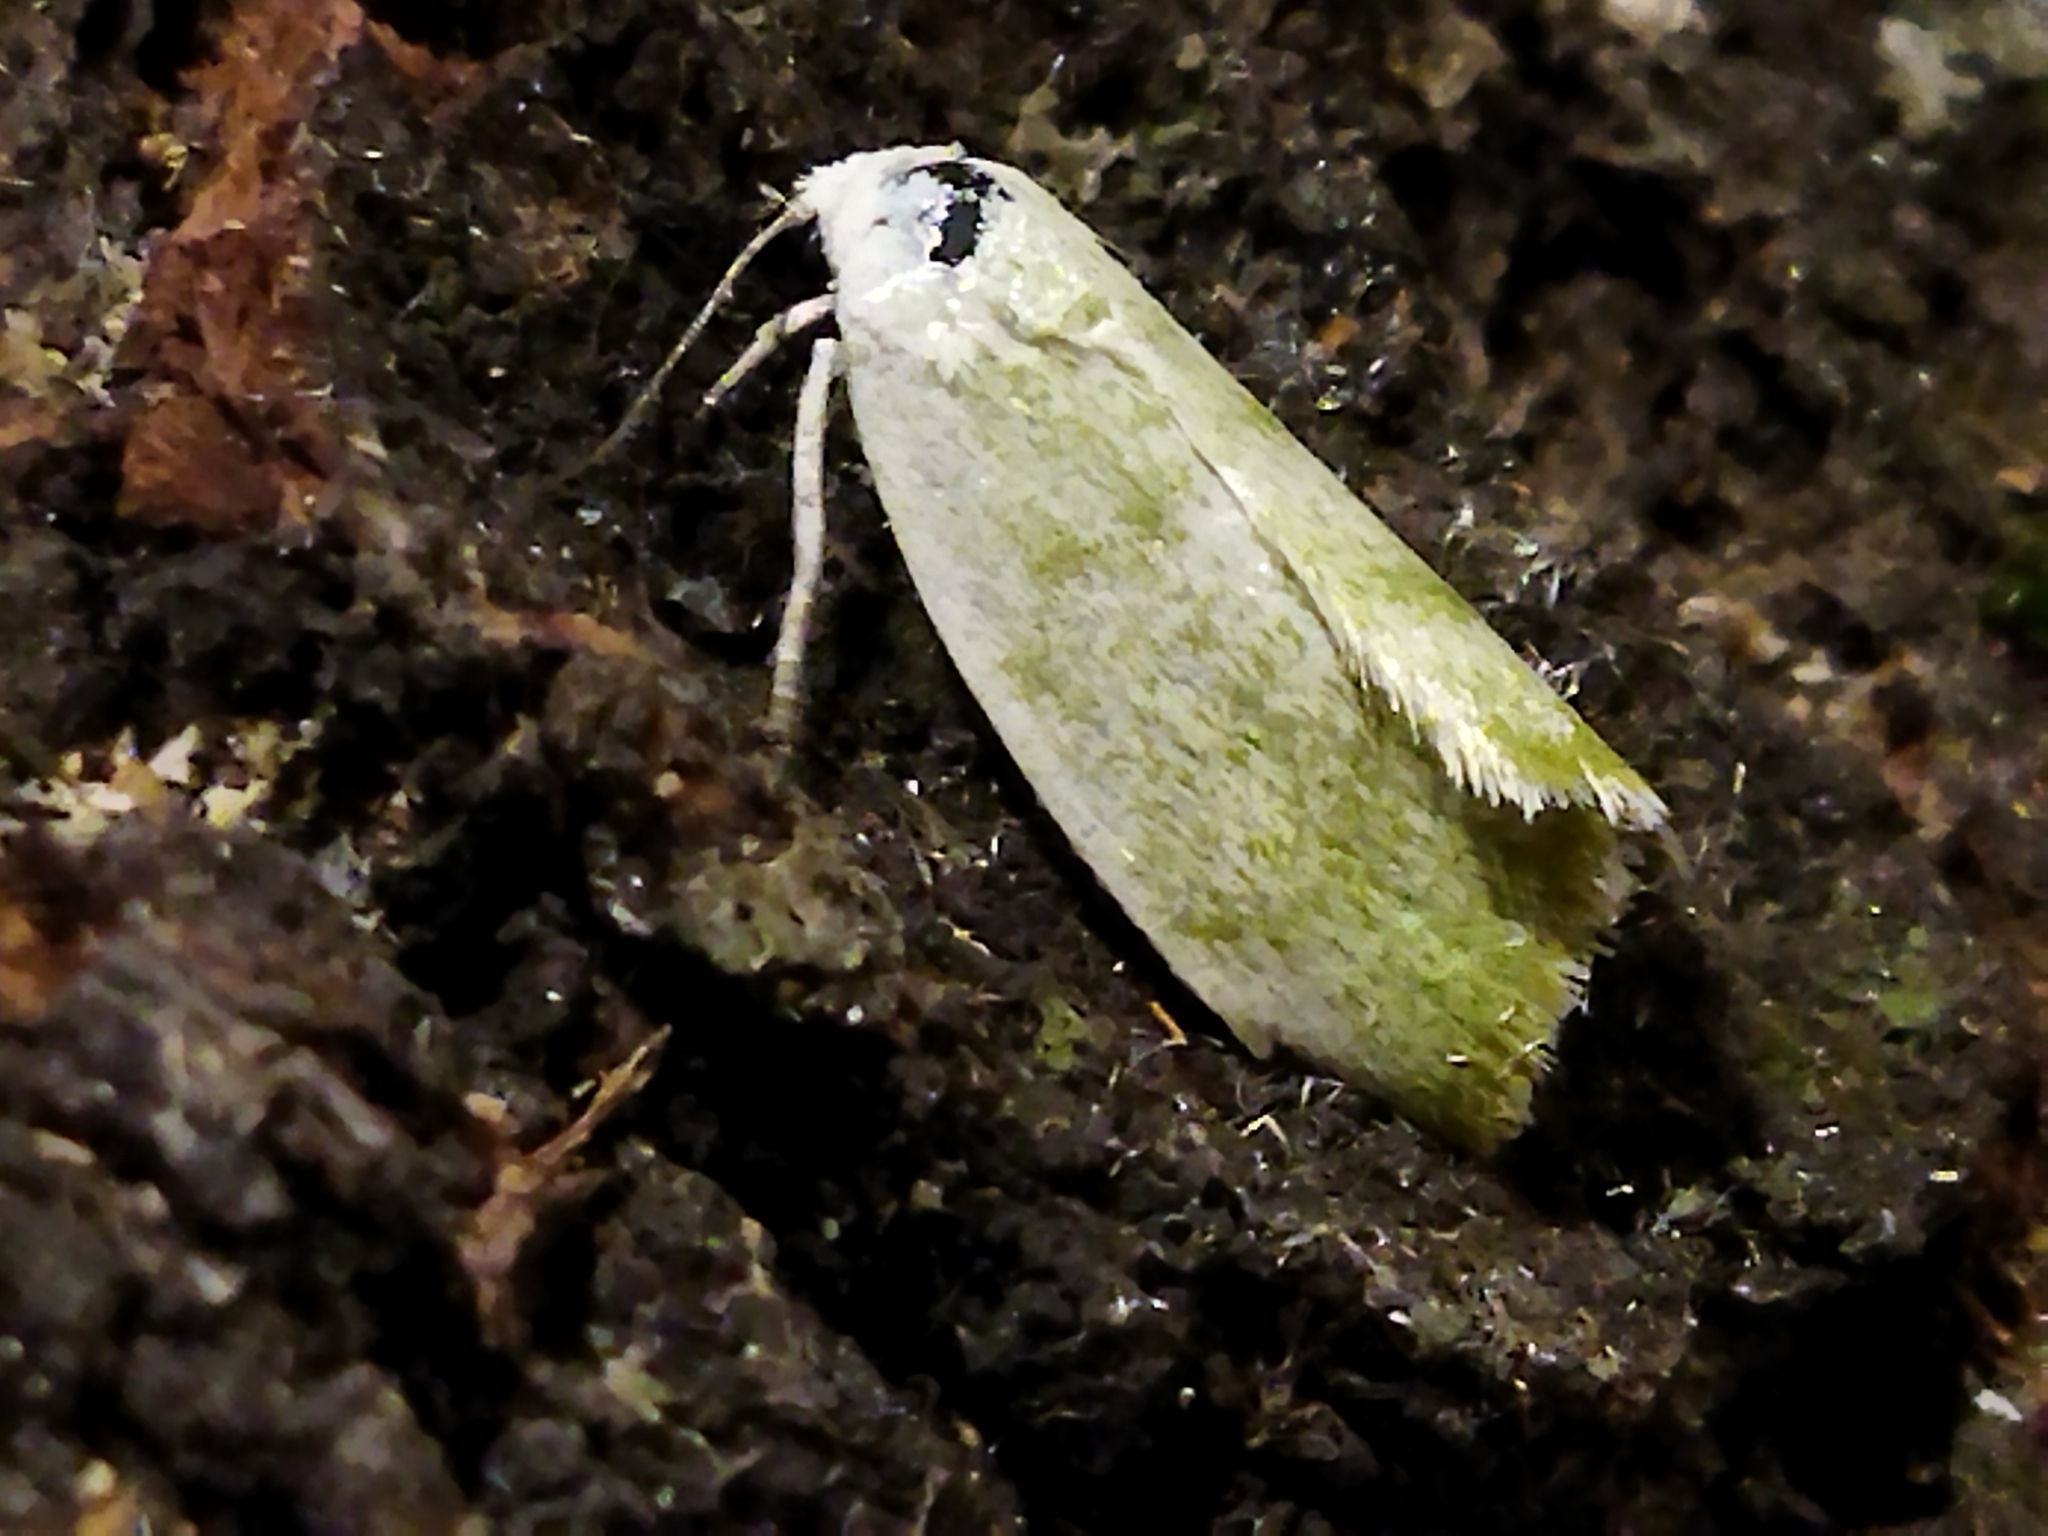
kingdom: Animalia
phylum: Arthropoda
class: Insecta
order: Lepidoptera
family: Nolidae
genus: Earias
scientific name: Earias vernana
